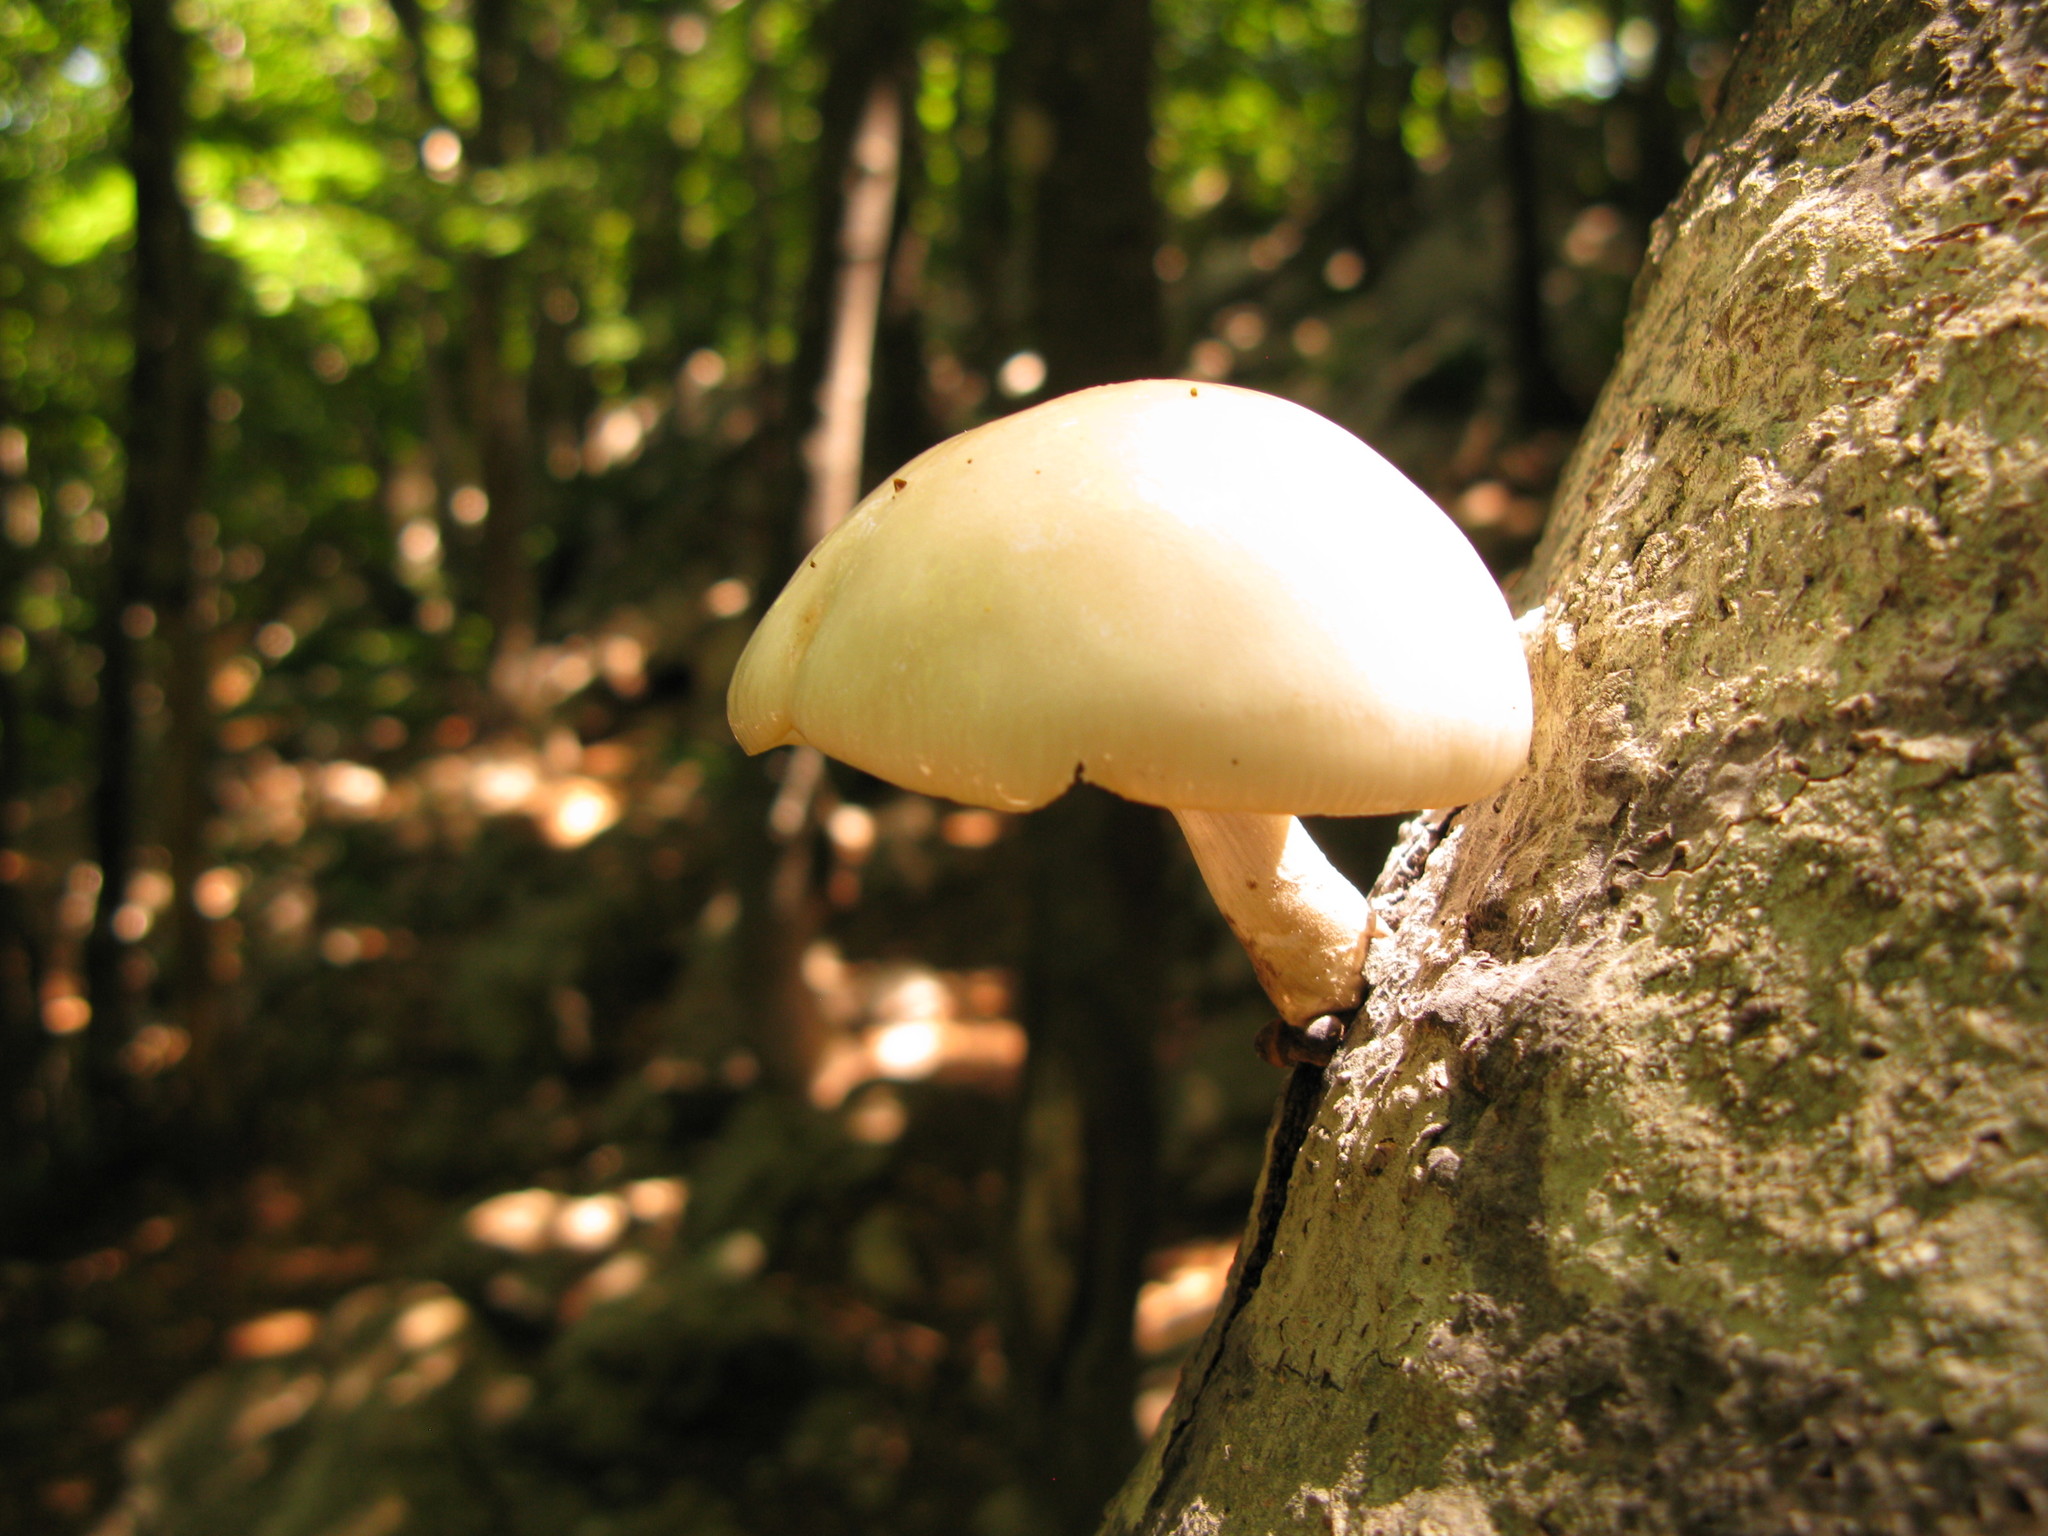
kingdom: Fungi
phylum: Basidiomycota
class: Agaricomycetes
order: Agaricales
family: Physalacriaceae
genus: Mucidula
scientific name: Mucidula mucida
